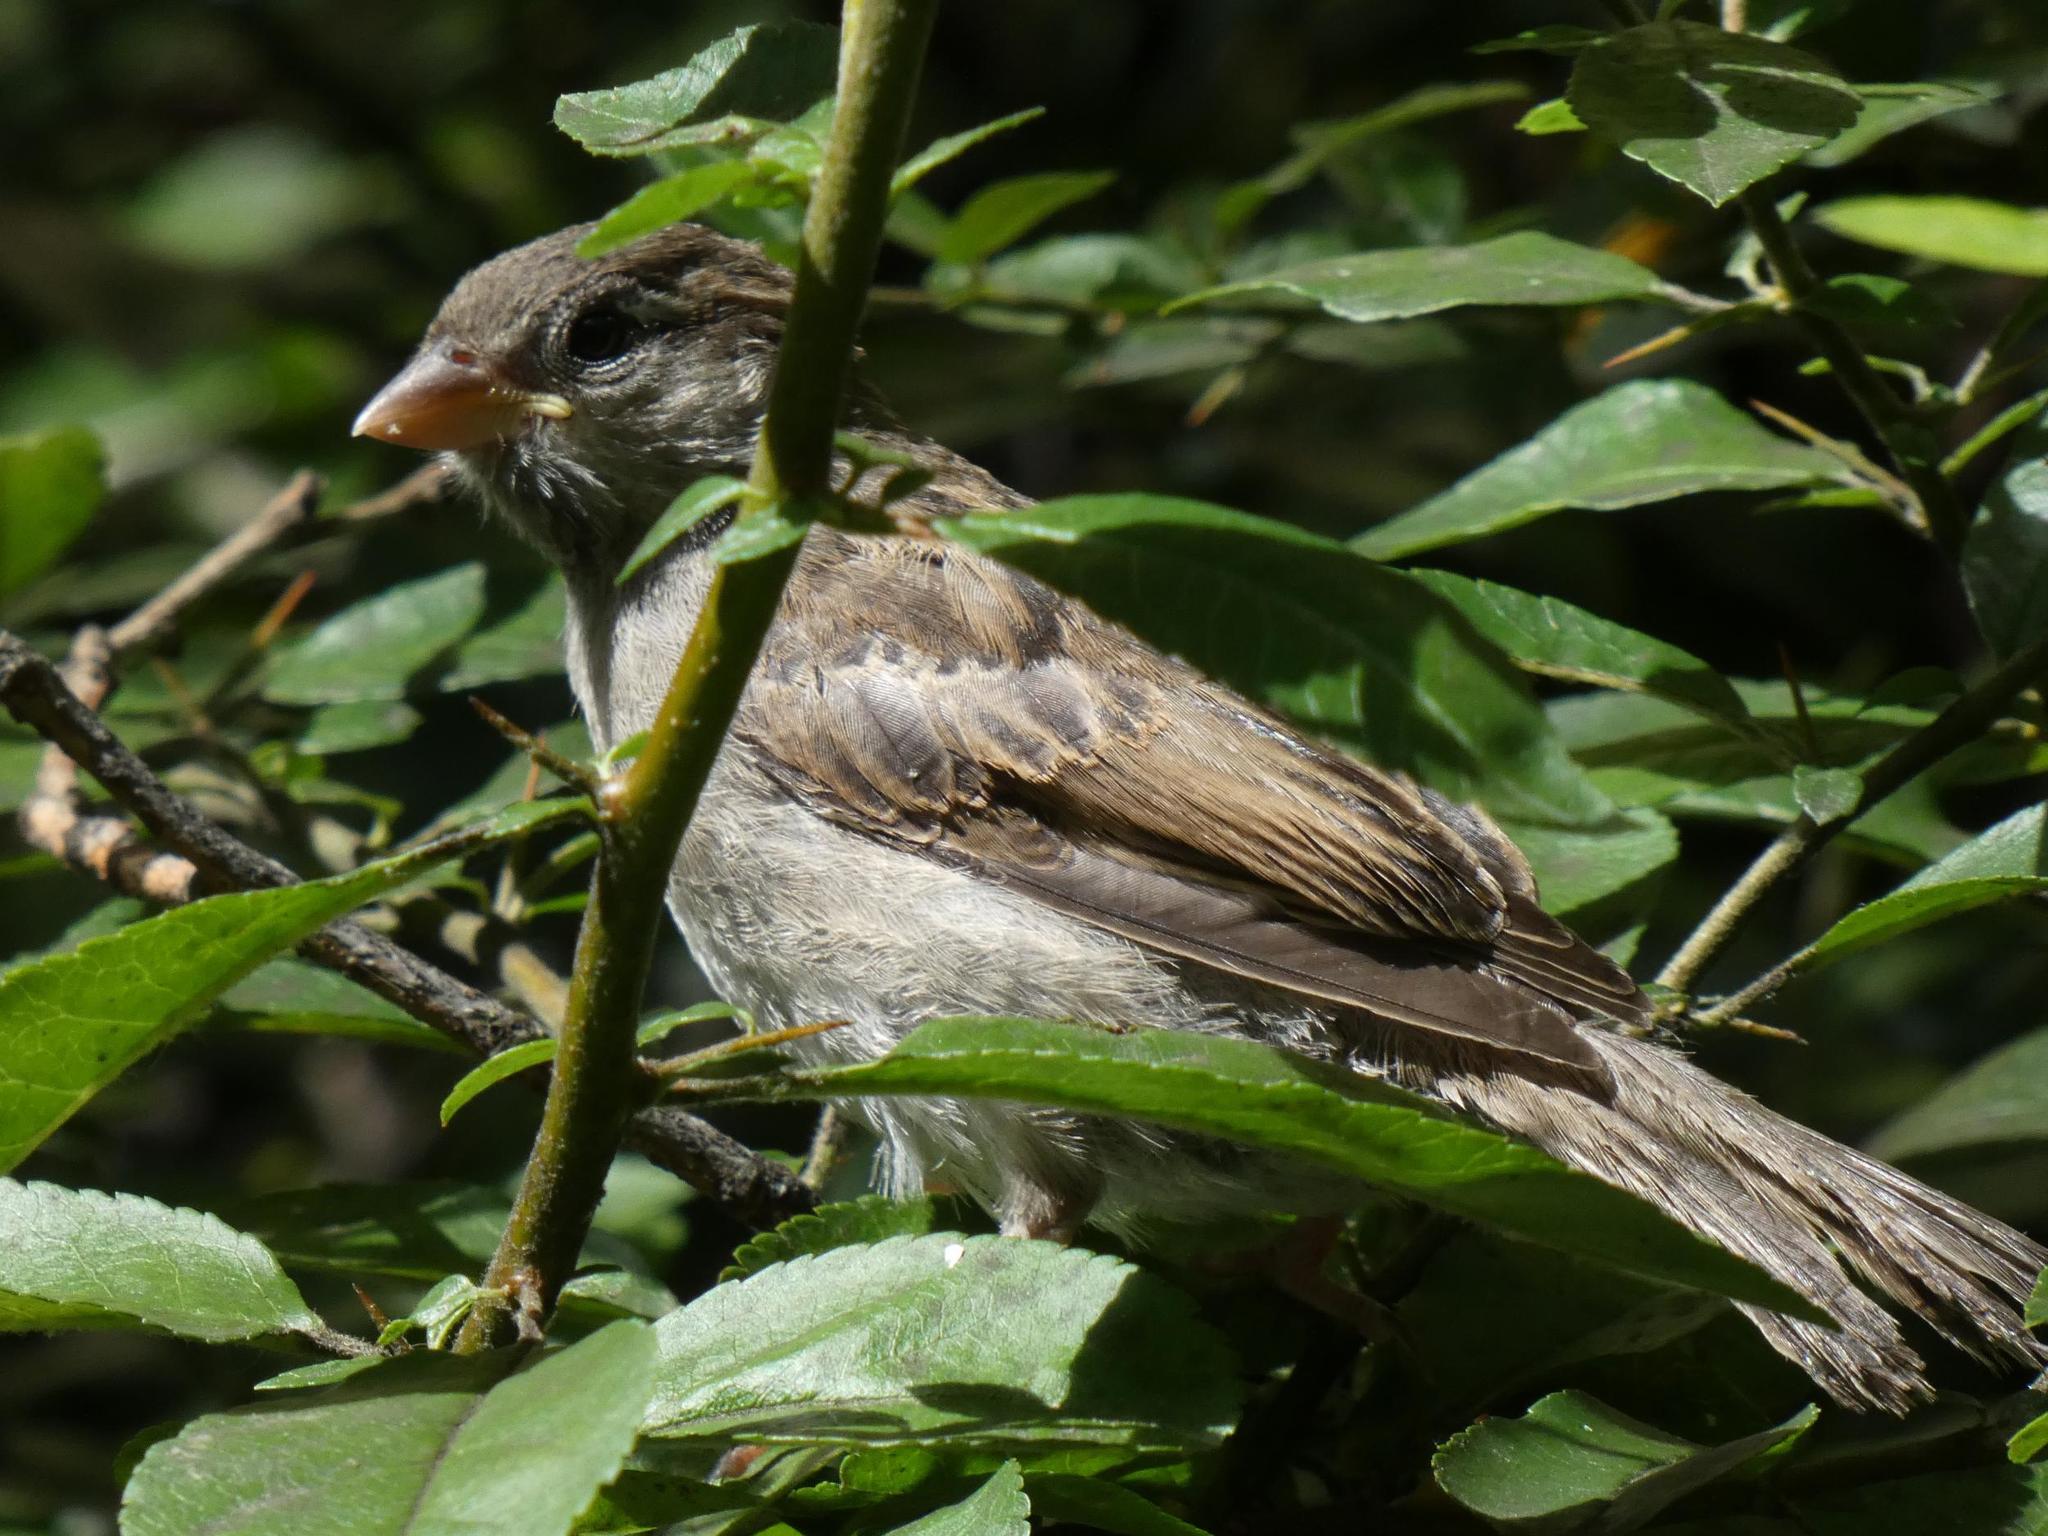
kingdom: Animalia
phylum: Chordata
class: Aves
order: Passeriformes
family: Passeridae
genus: Passer
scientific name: Passer domesticus
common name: House sparrow
